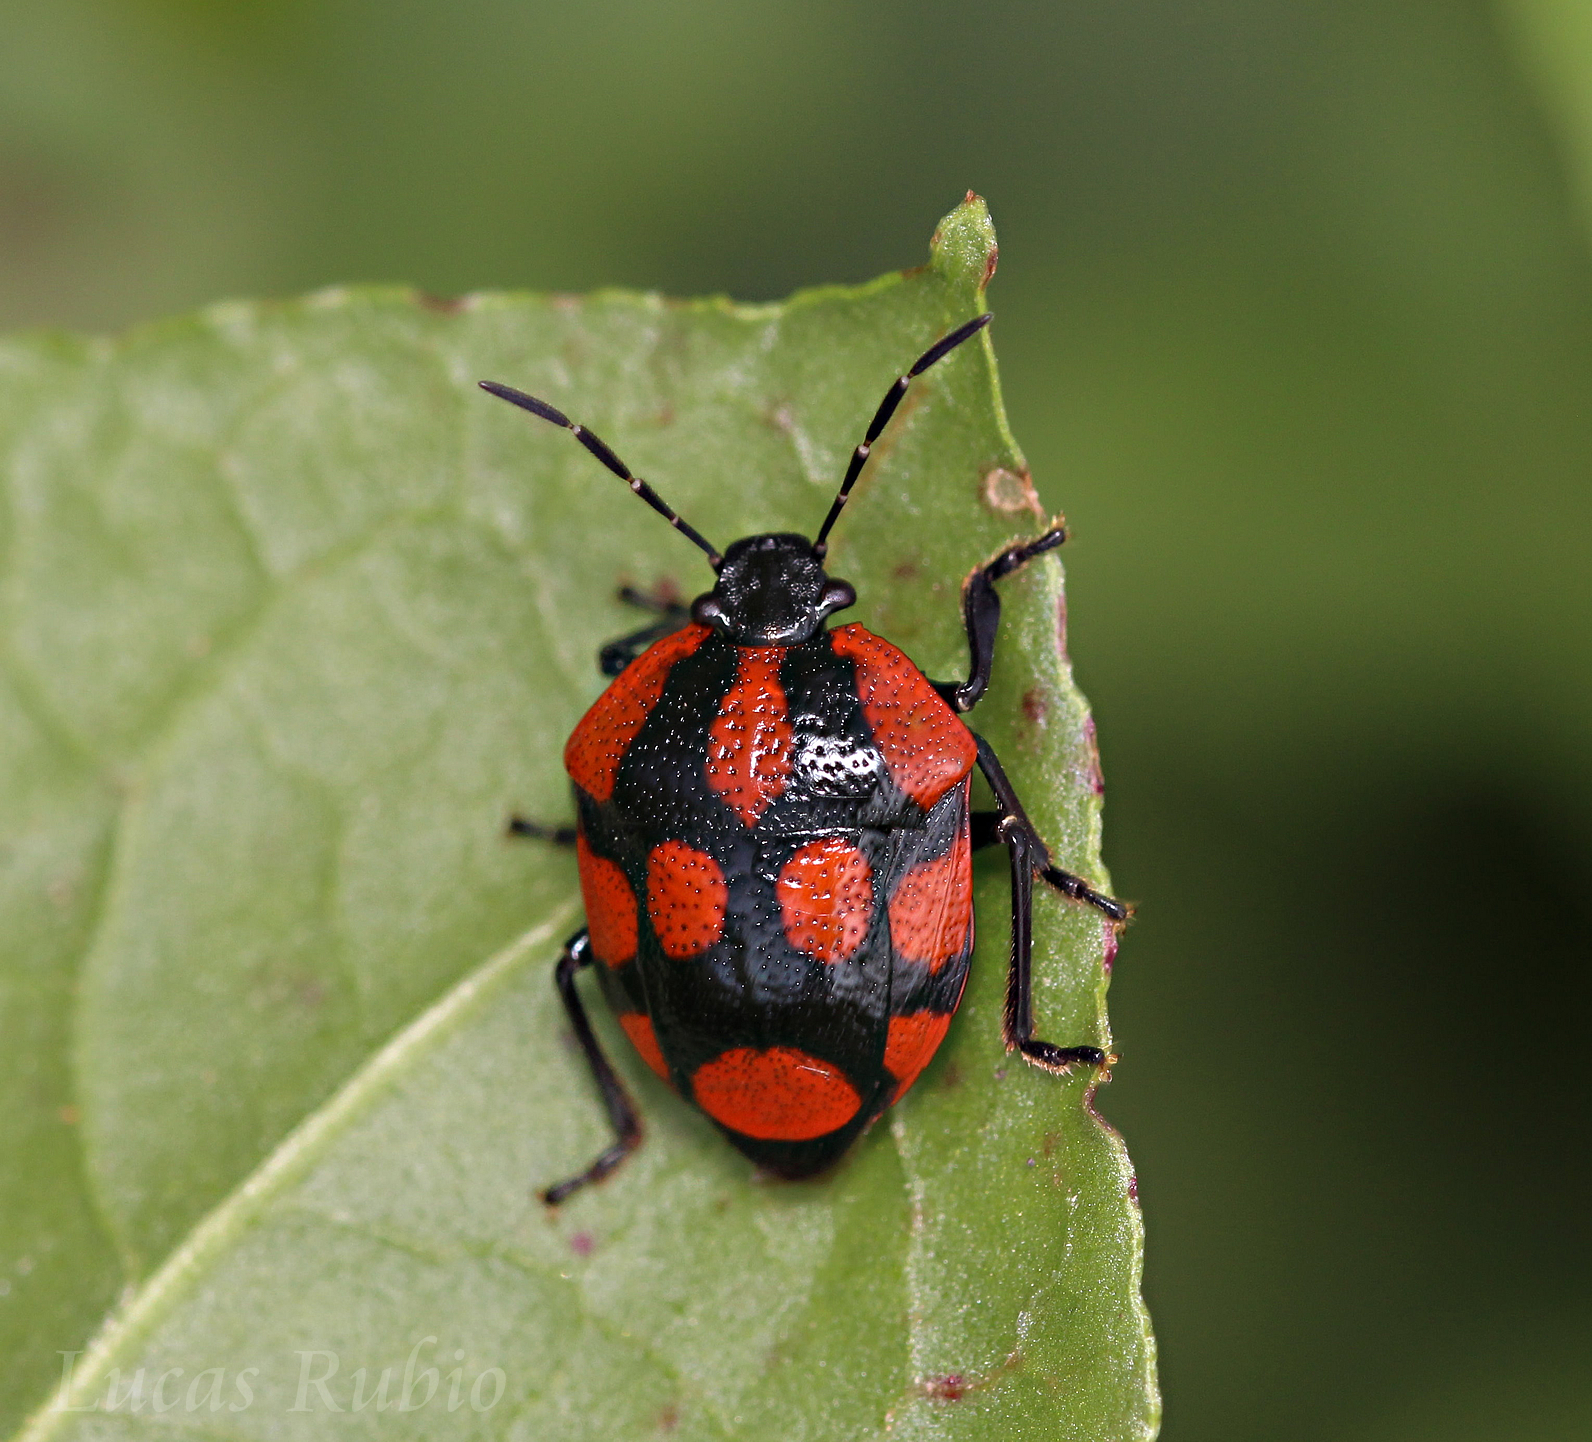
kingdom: Animalia
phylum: Arthropoda
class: Insecta
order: Hemiptera
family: Pentatomidae
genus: Stiretrus
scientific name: Stiretrus
